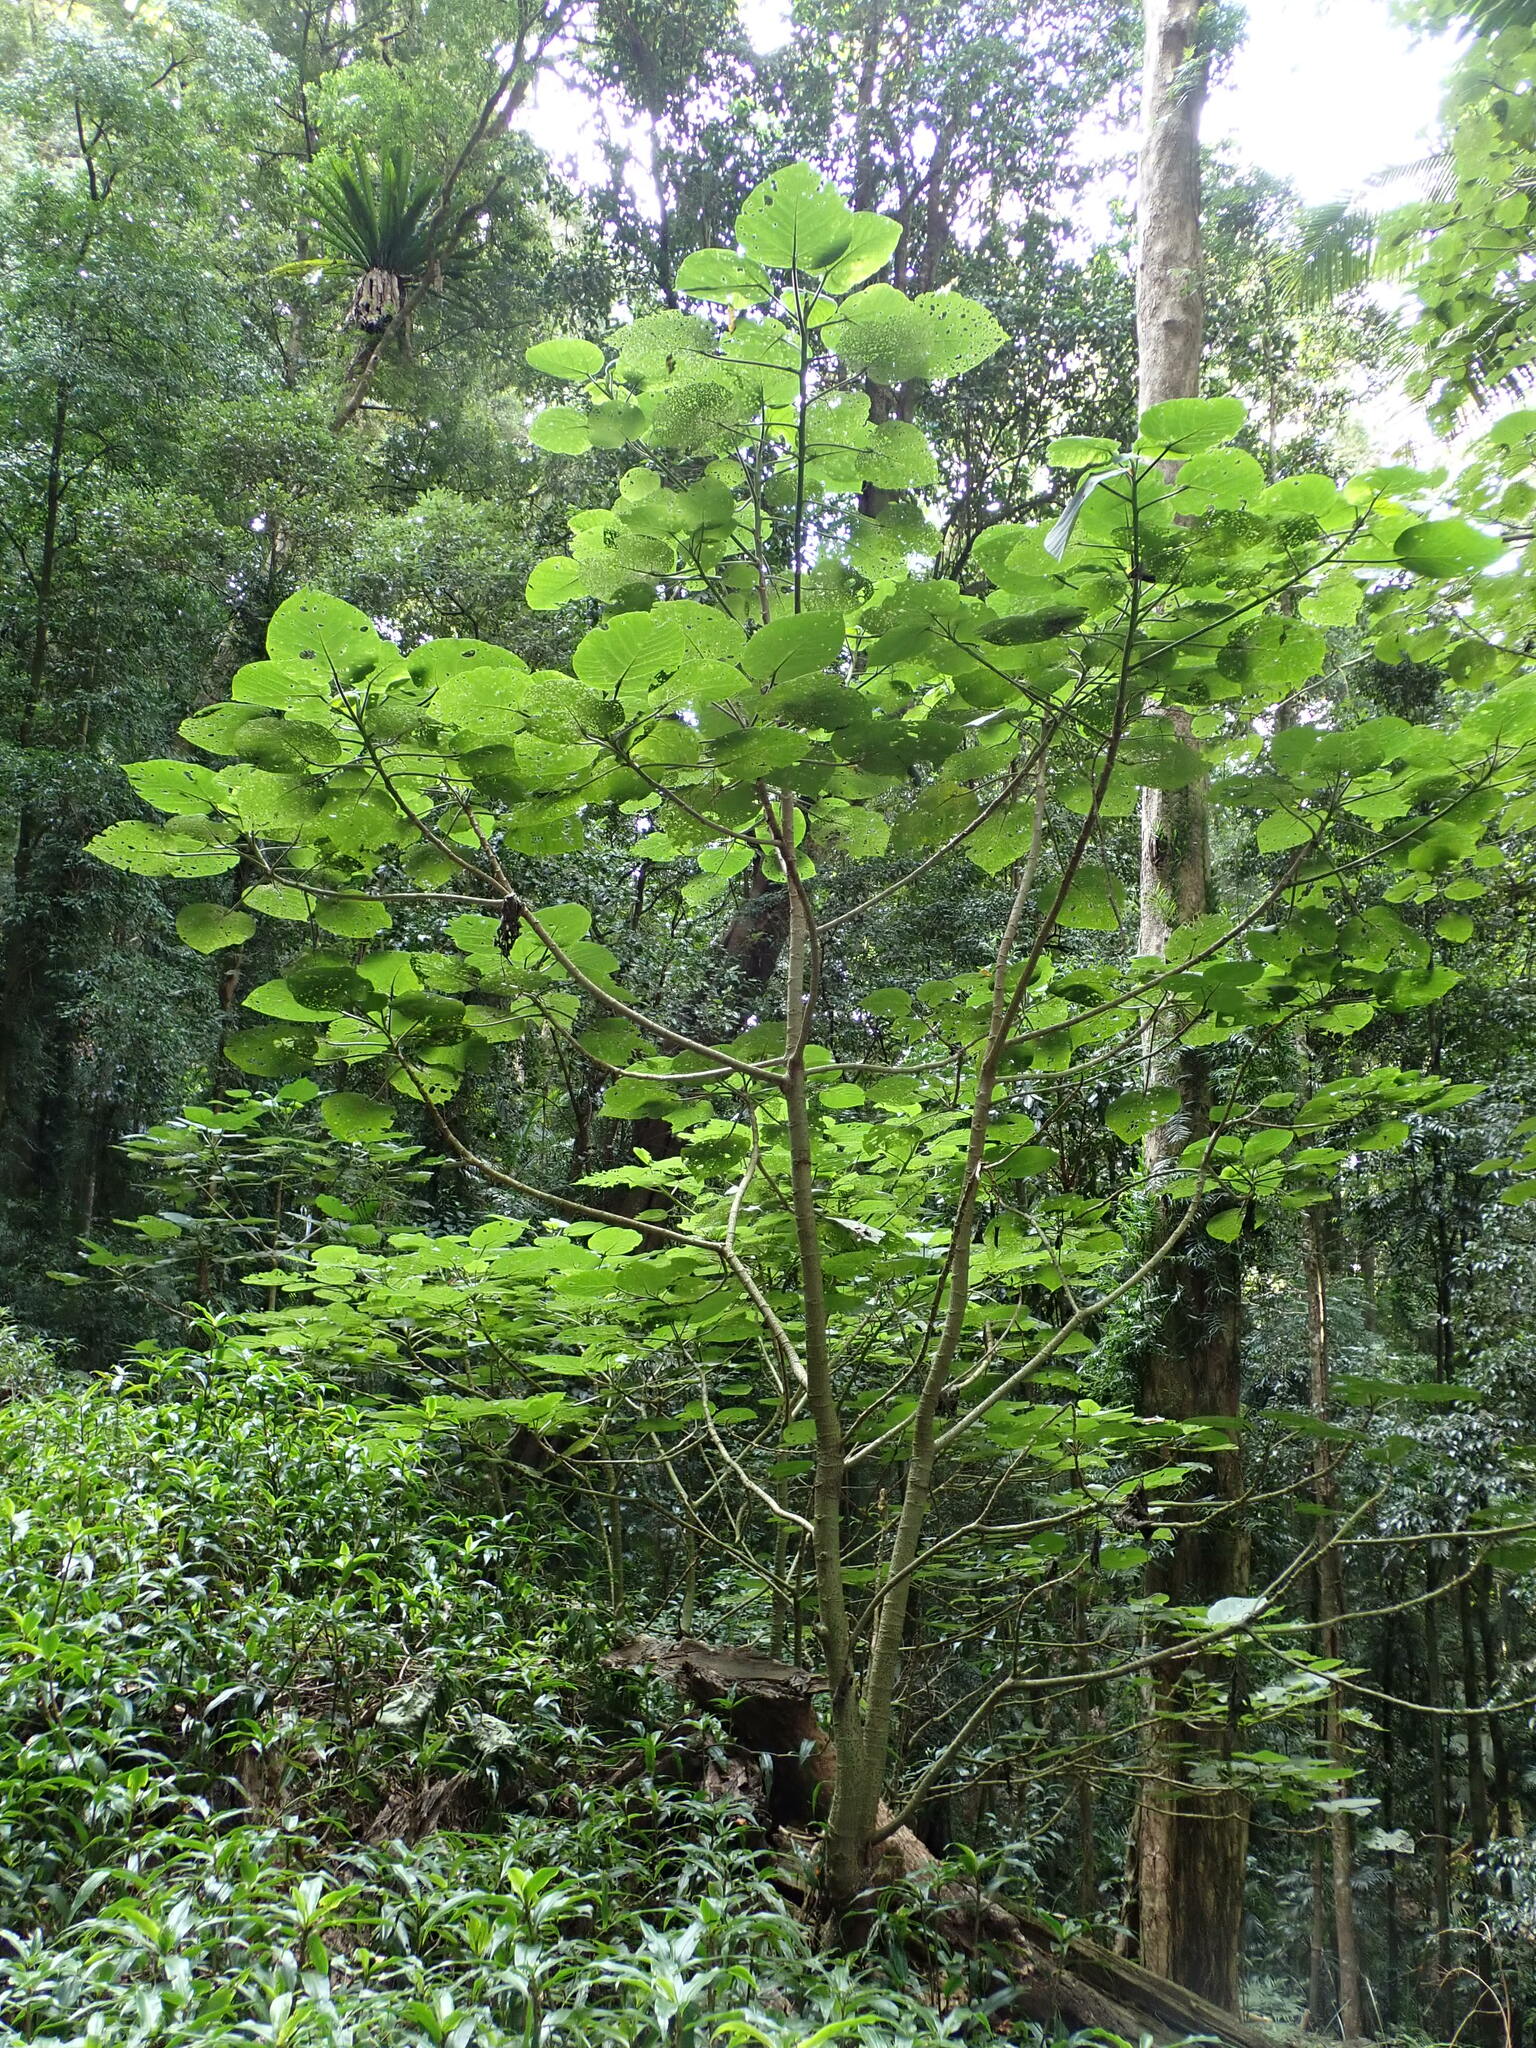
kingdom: Plantae
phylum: Tracheophyta
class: Magnoliopsida
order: Rosales
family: Urticaceae
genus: Dendrocnide
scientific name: Dendrocnide excelsa
